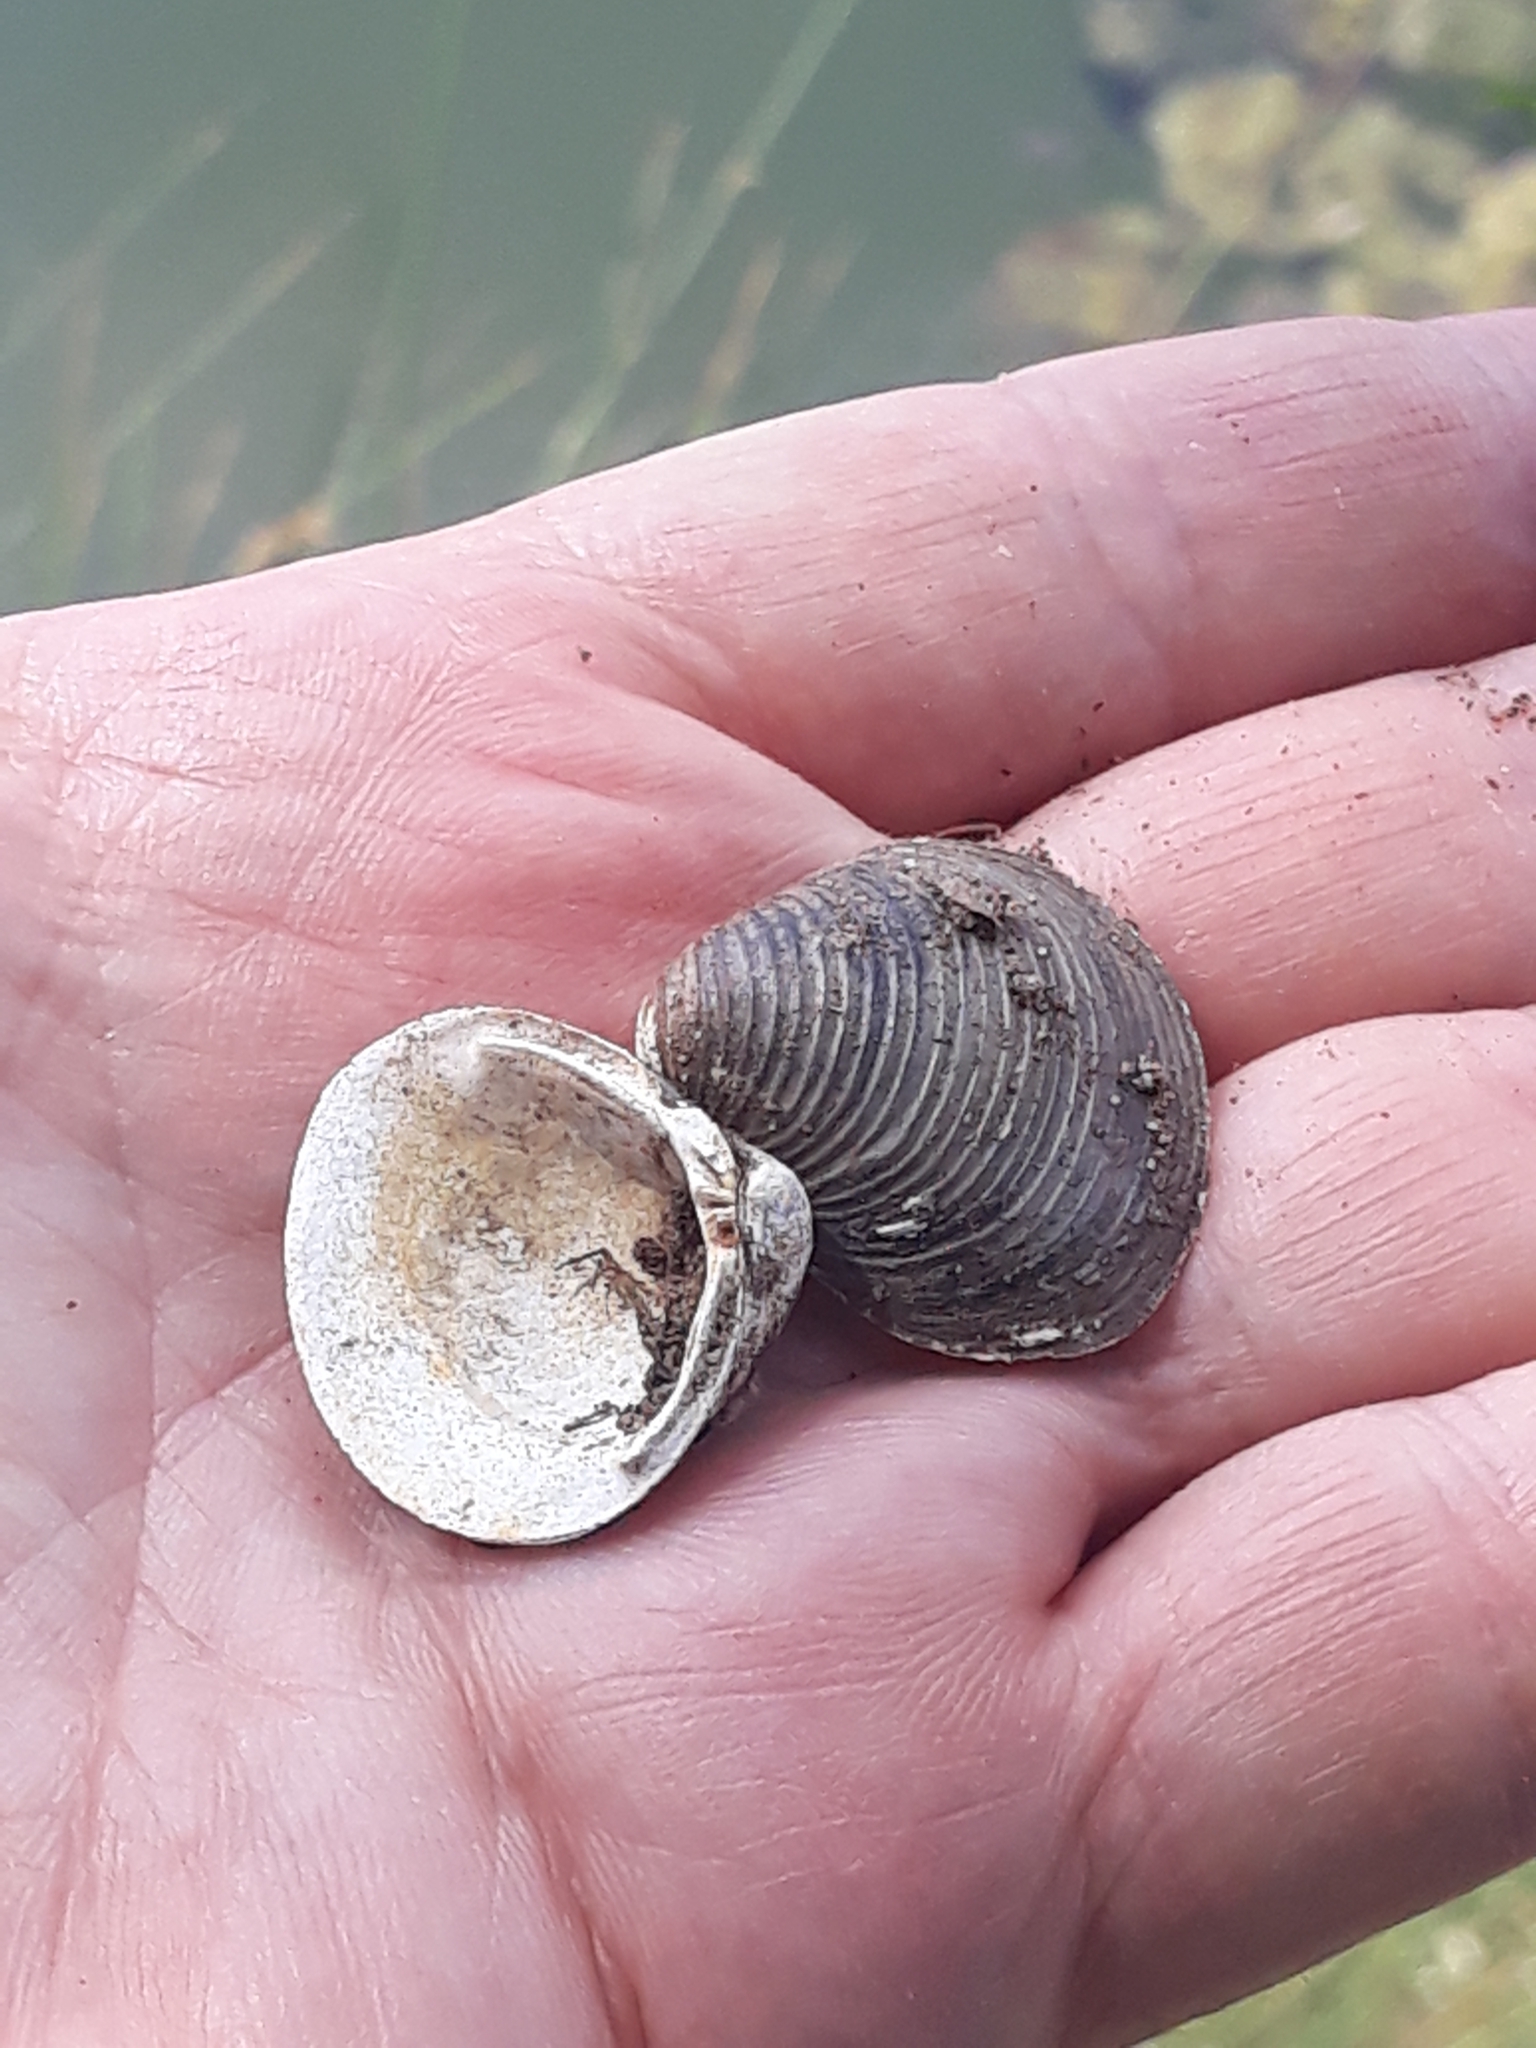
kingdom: Animalia
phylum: Mollusca
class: Bivalvia
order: Venerida
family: Cyrenidae
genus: Corbicula
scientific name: Corbicula fluminea
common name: Asian clam
